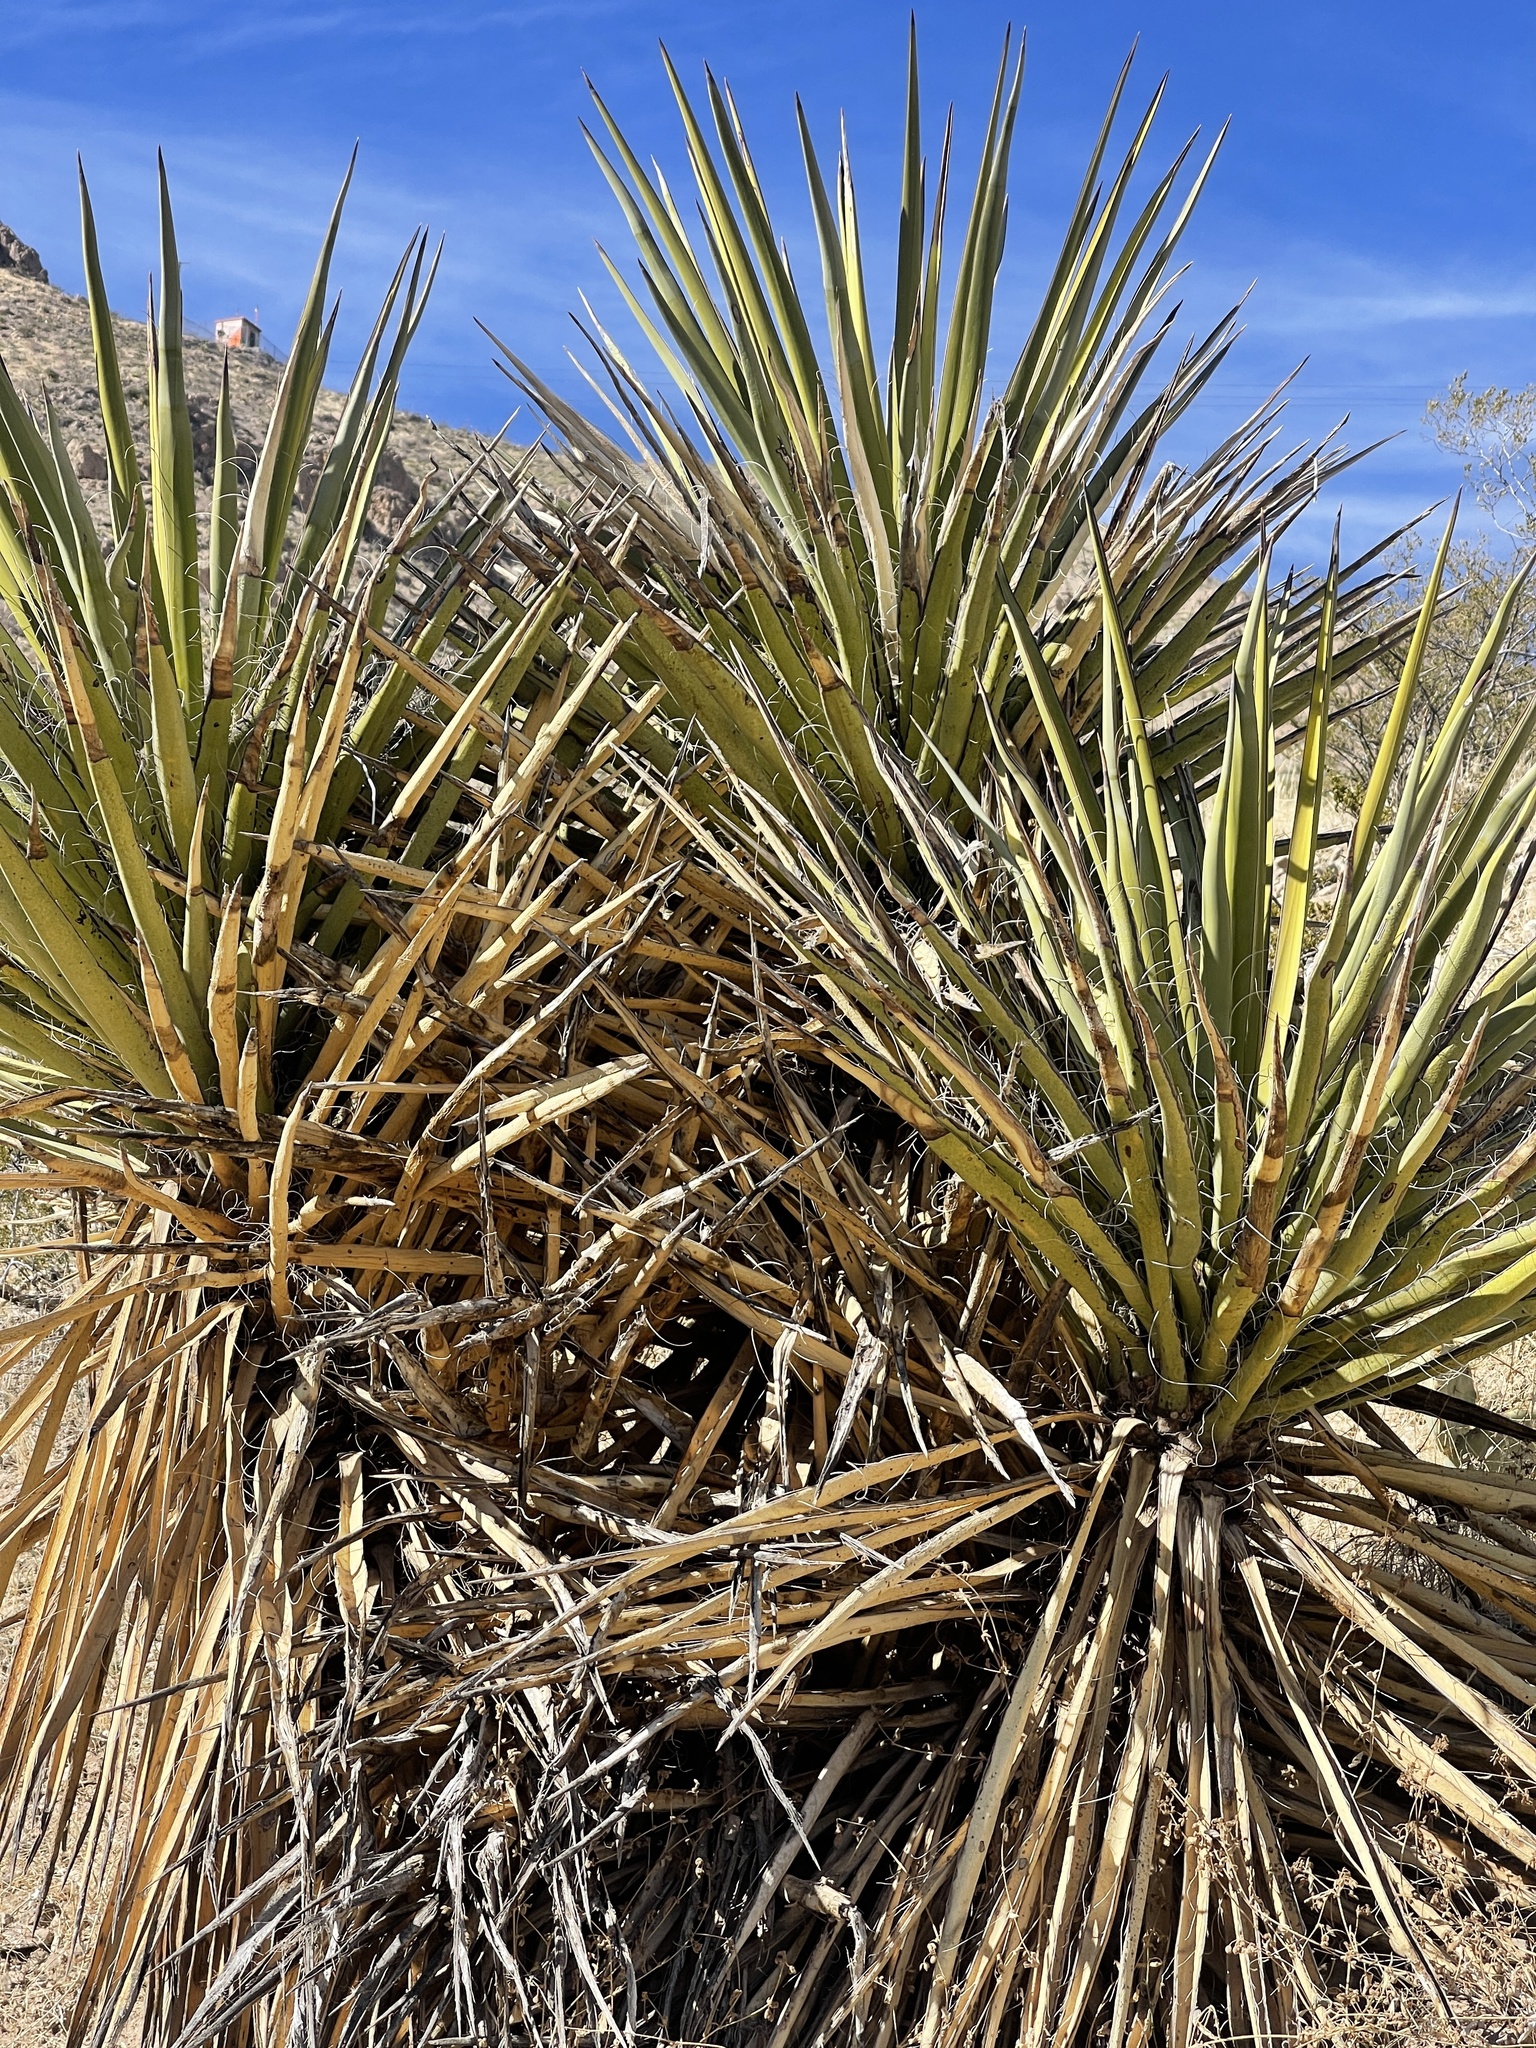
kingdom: Plantae
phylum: Tracheophyta
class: Liliopsida
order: Asparagales
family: Asparagaceae
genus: Yucca
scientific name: Yucca treculiana
